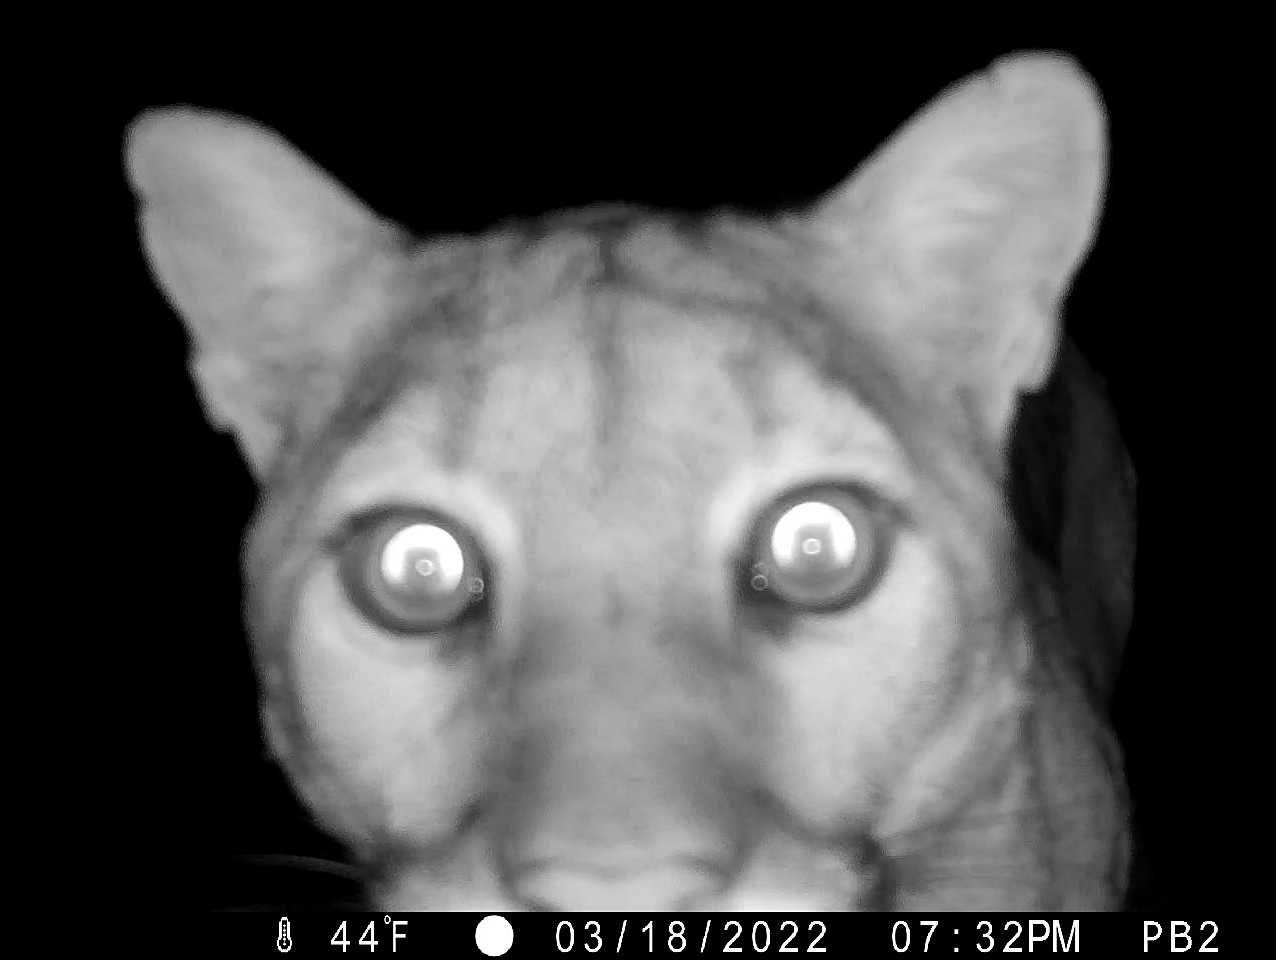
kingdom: Animalia
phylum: Chordata
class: Mammalia
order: Carnivora
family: Felidae
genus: Puma
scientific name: Puma concolor
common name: Puma
